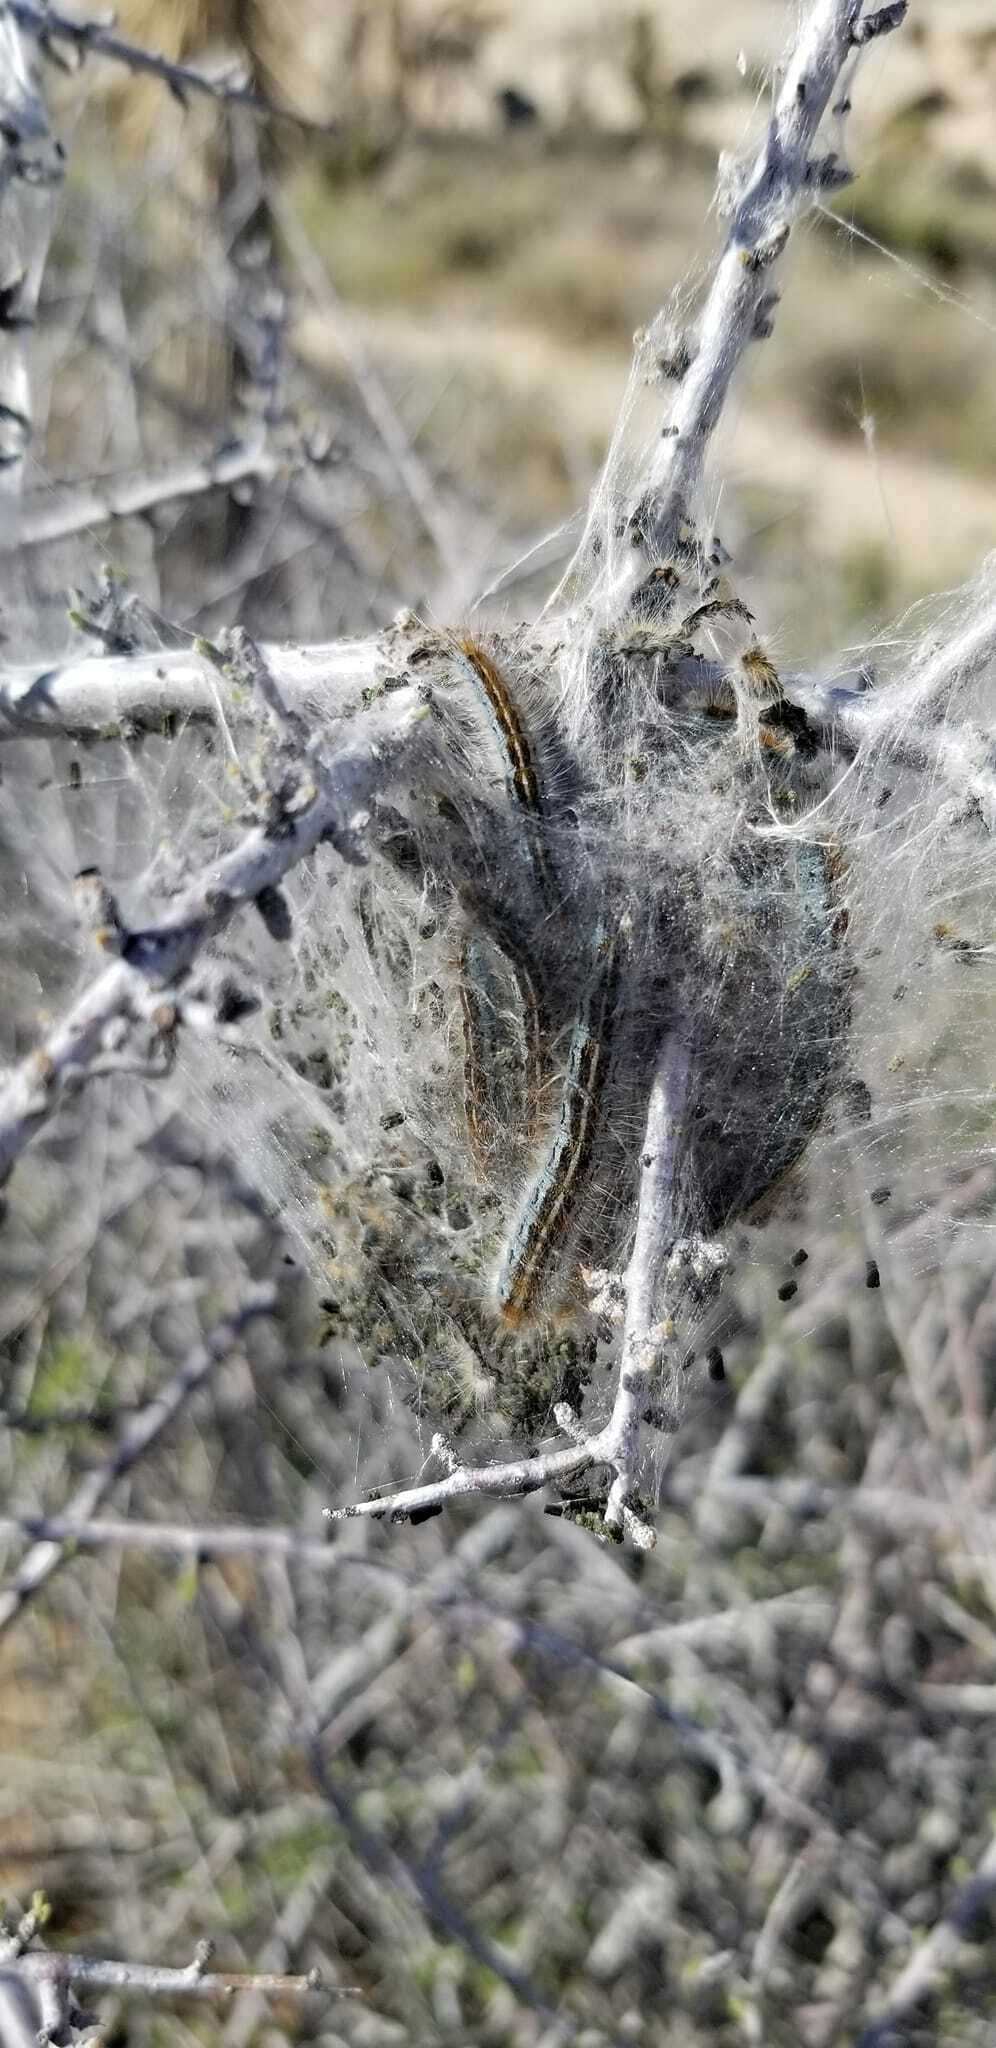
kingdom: Animalia
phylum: Arthropoda
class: Insecta
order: Lepidoptera
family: Lasiocampidae
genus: Malacosoma
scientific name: Malacosoma californica
